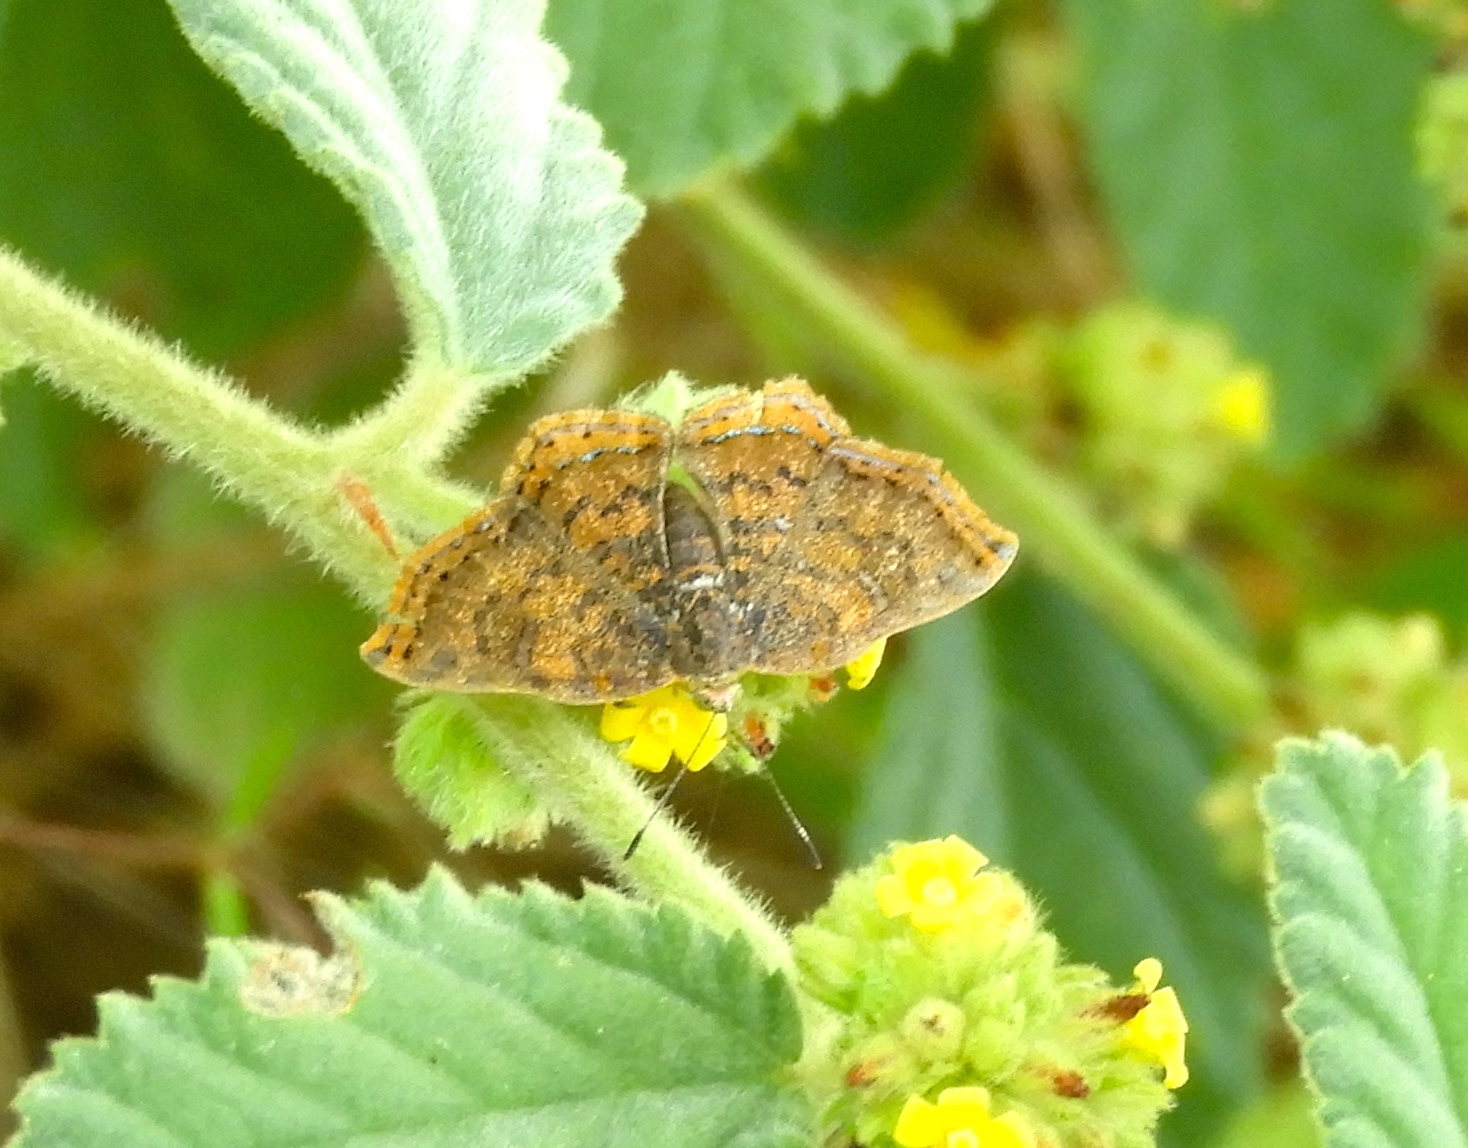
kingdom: Animalia
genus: Caria
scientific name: Caria ino
